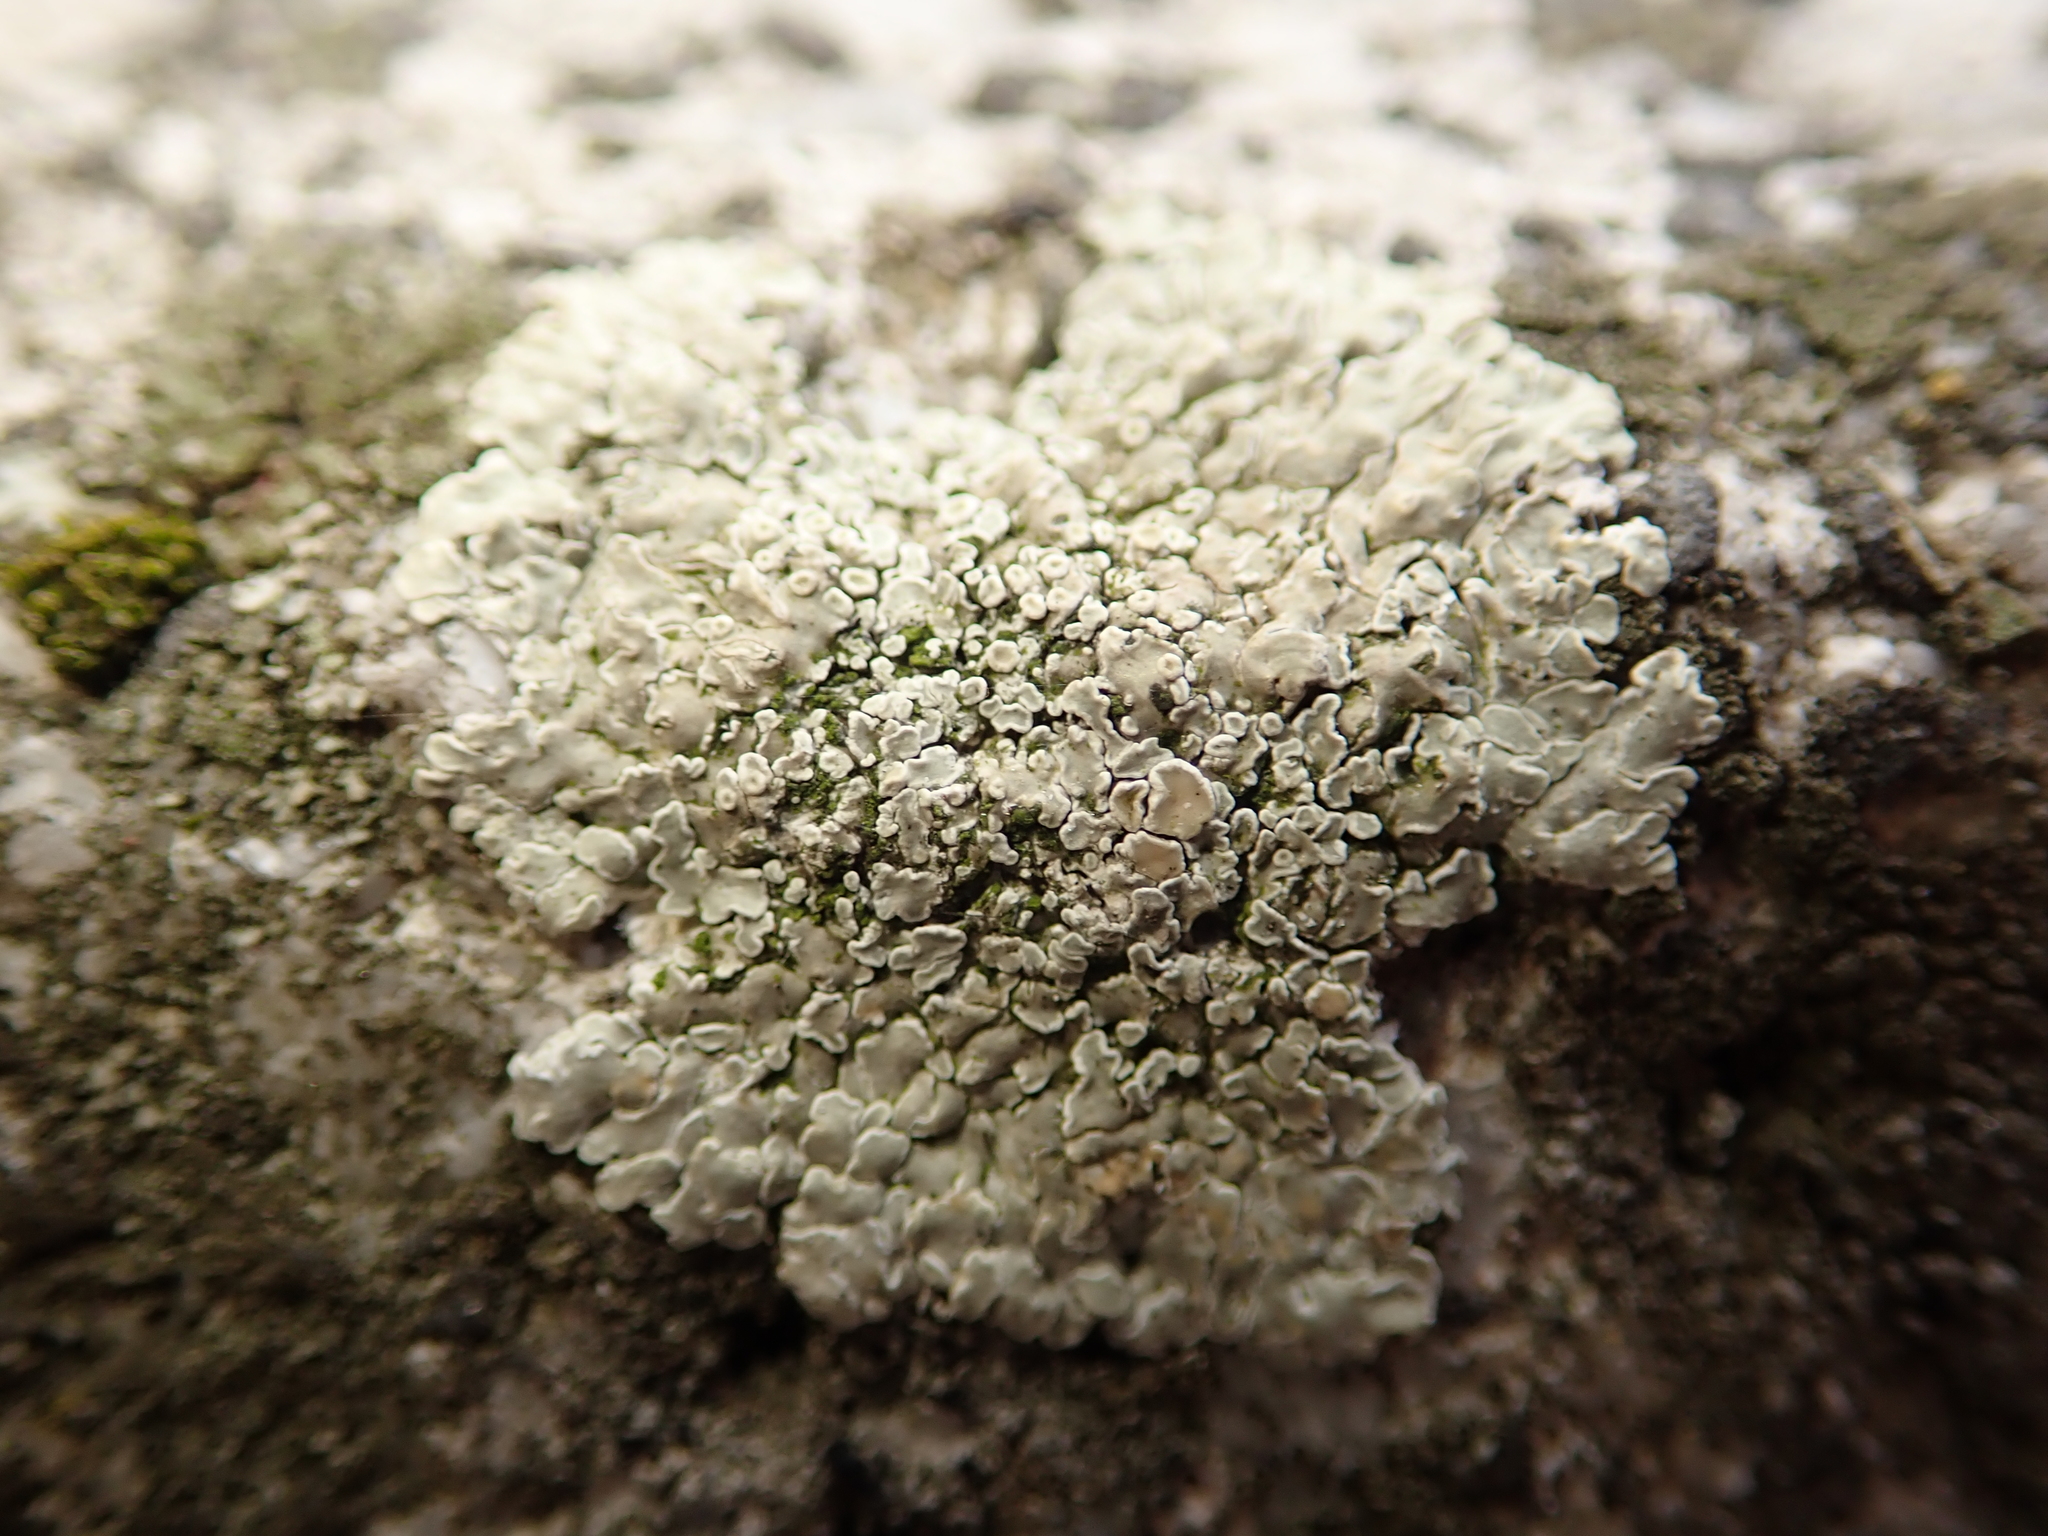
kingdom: Fungi
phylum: Ascomycota
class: Lecanoromycetes
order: Lecanorales
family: Lecanoraceae
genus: Protoparmeliopsis
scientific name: Protoparmeliopsis muralis
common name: Stonewall rim lichen
